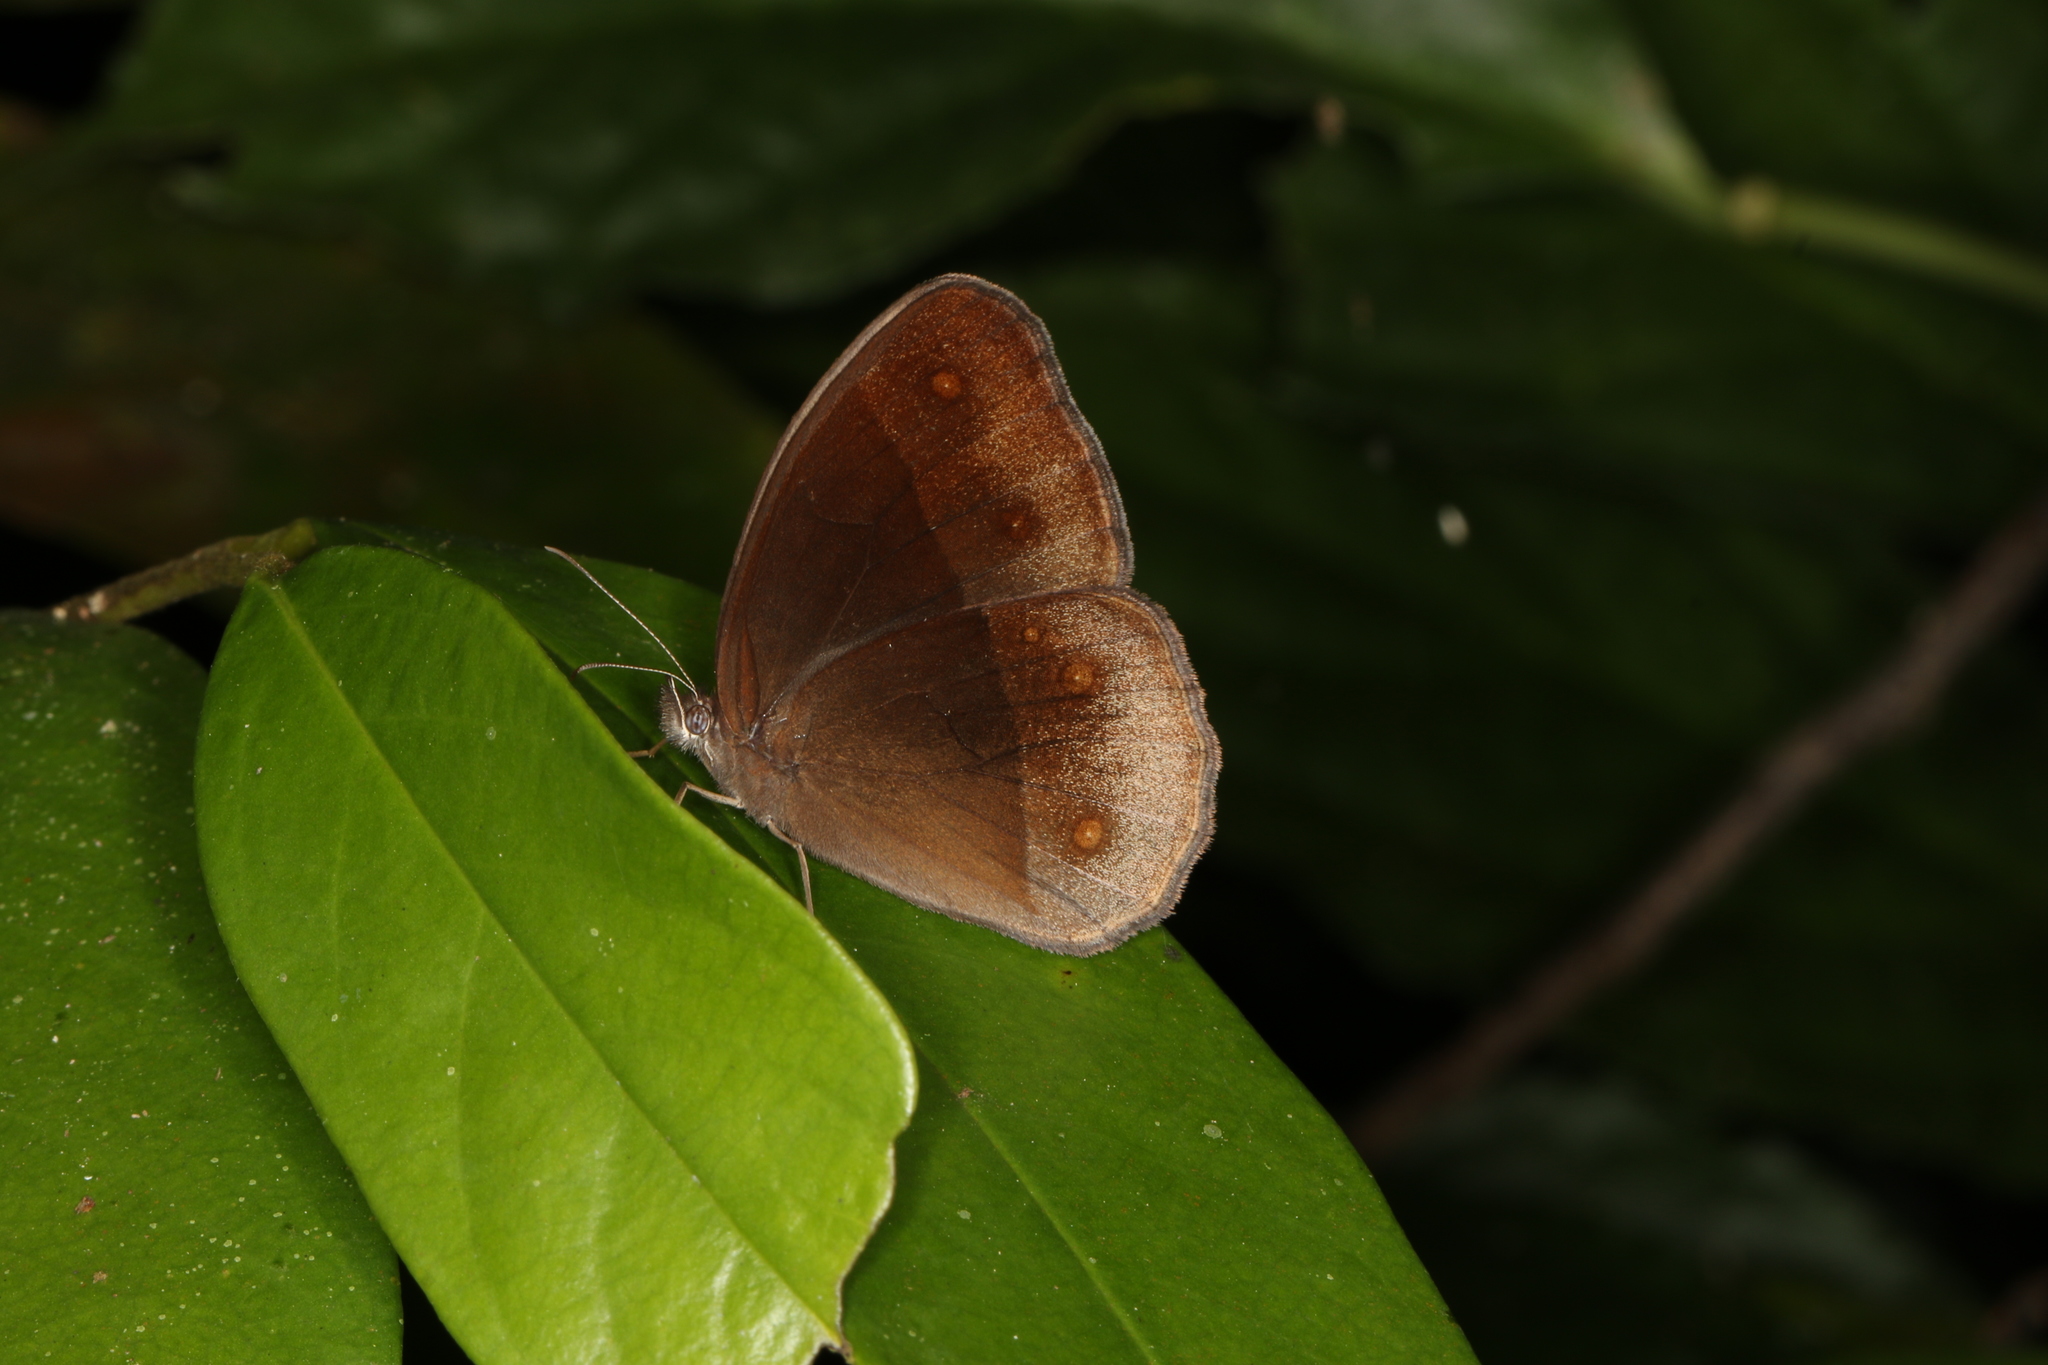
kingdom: Animalia
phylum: Arthropoda
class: Insecta
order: Lepidoptera
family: Nymphalidae
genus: Orsotriaena
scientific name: Orsotriaena medus
